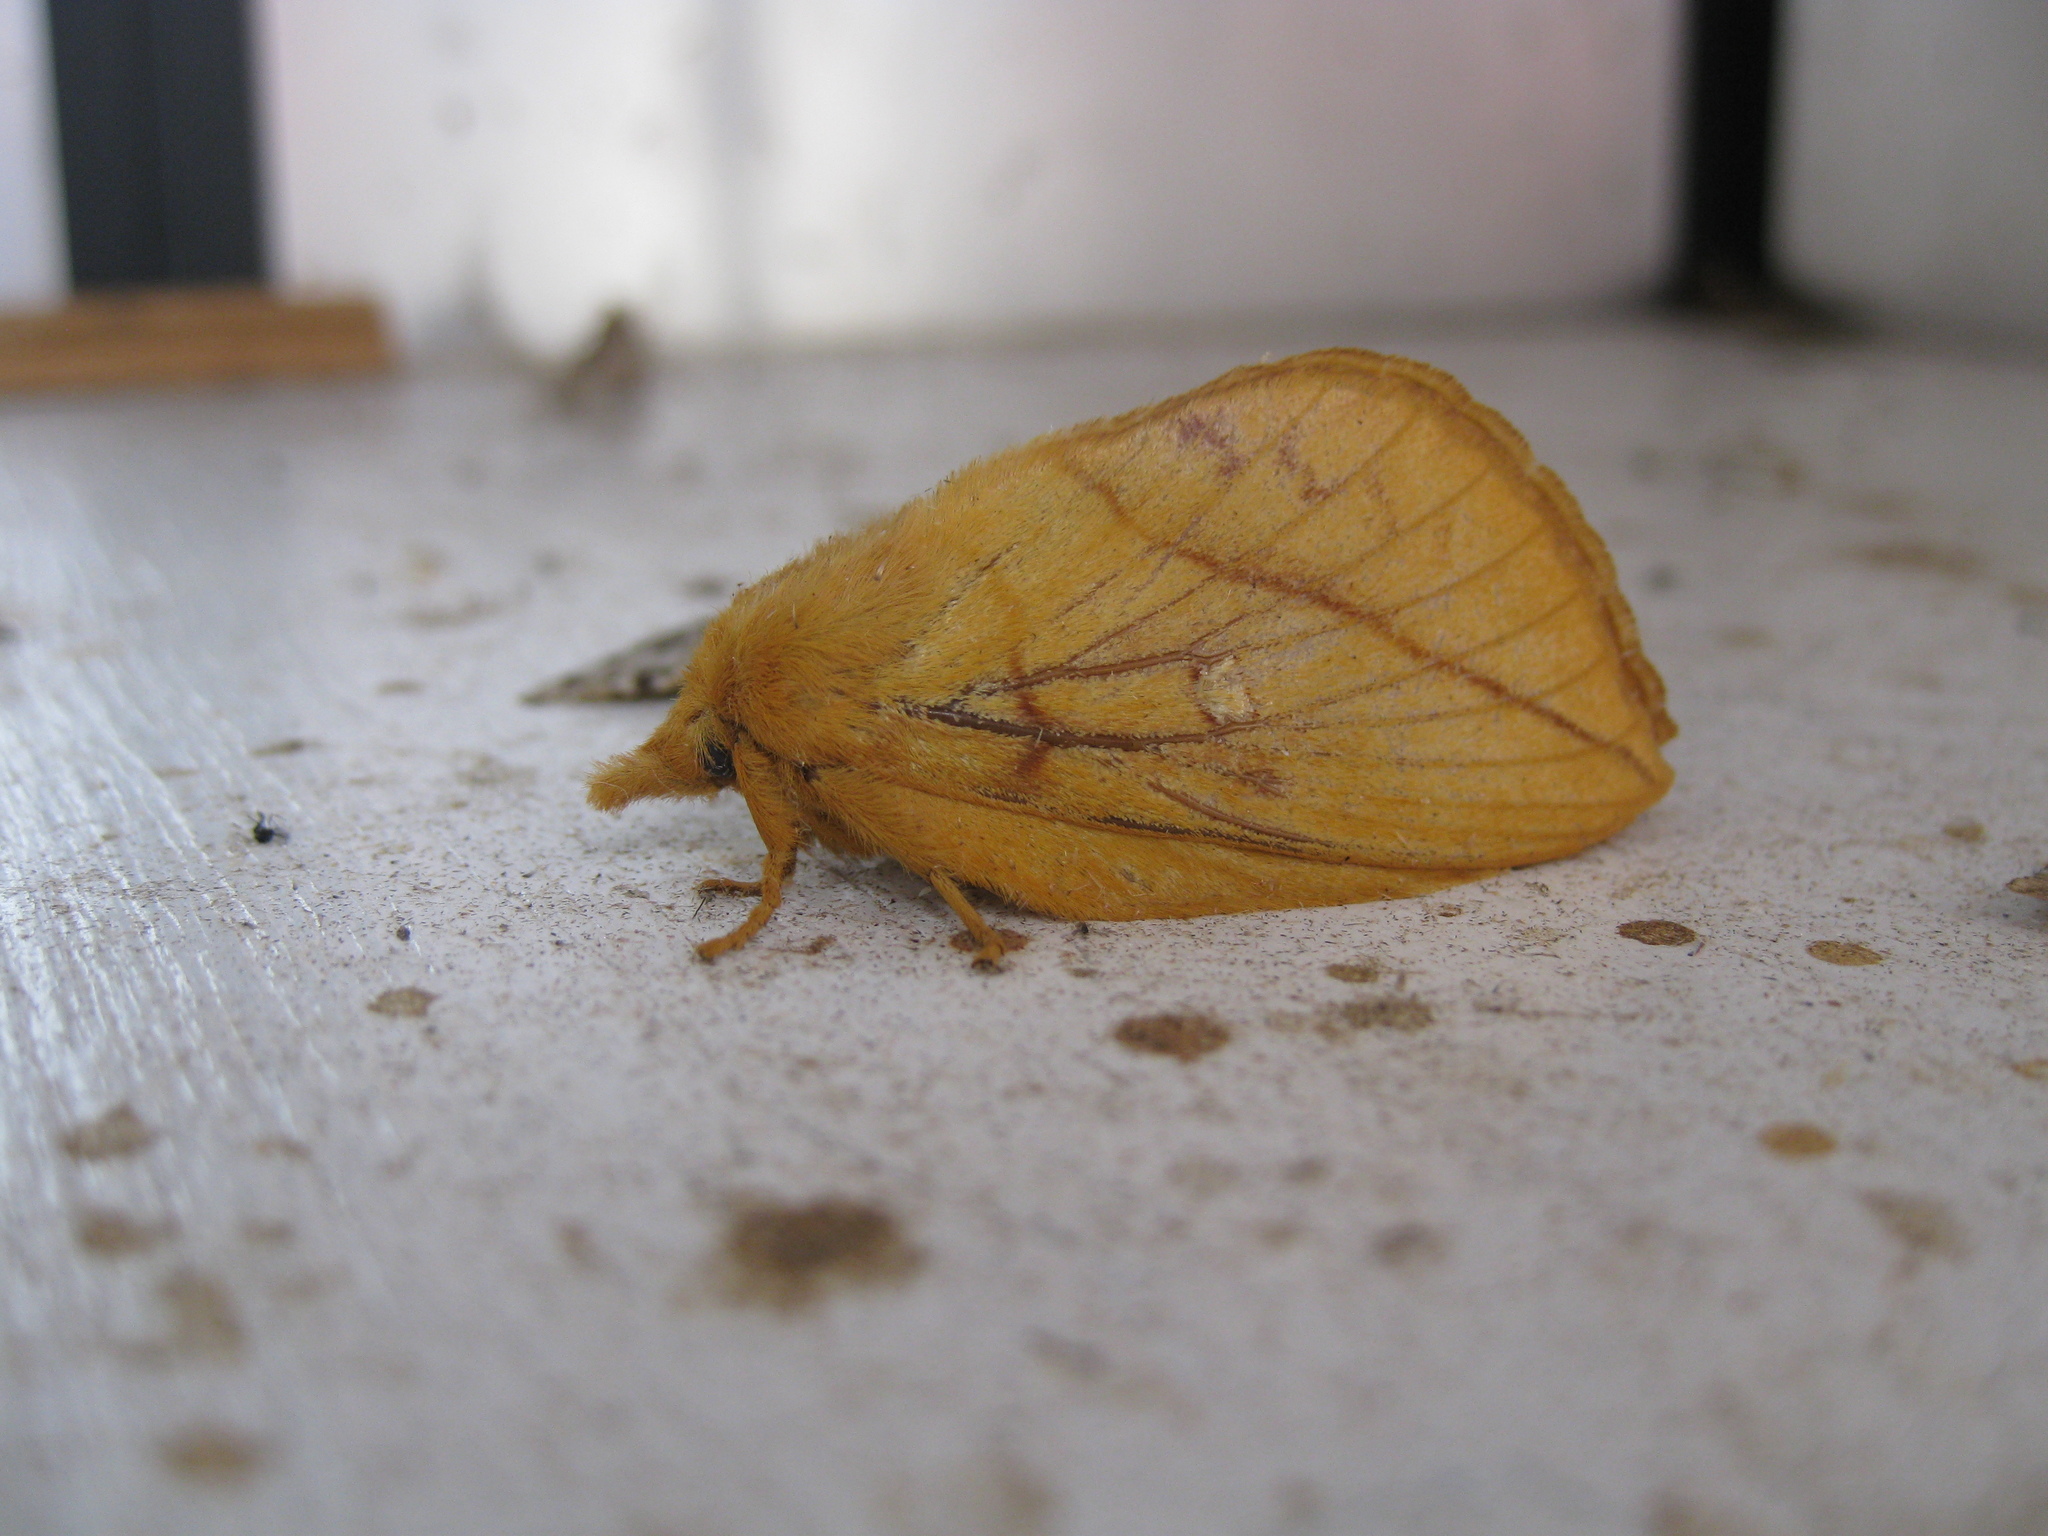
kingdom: Animalia
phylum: Arthropoda
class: Insecta
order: Lepidoptera
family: Lasiocampidae
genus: Euthrix
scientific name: Euthrix potatoria
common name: Drinker
